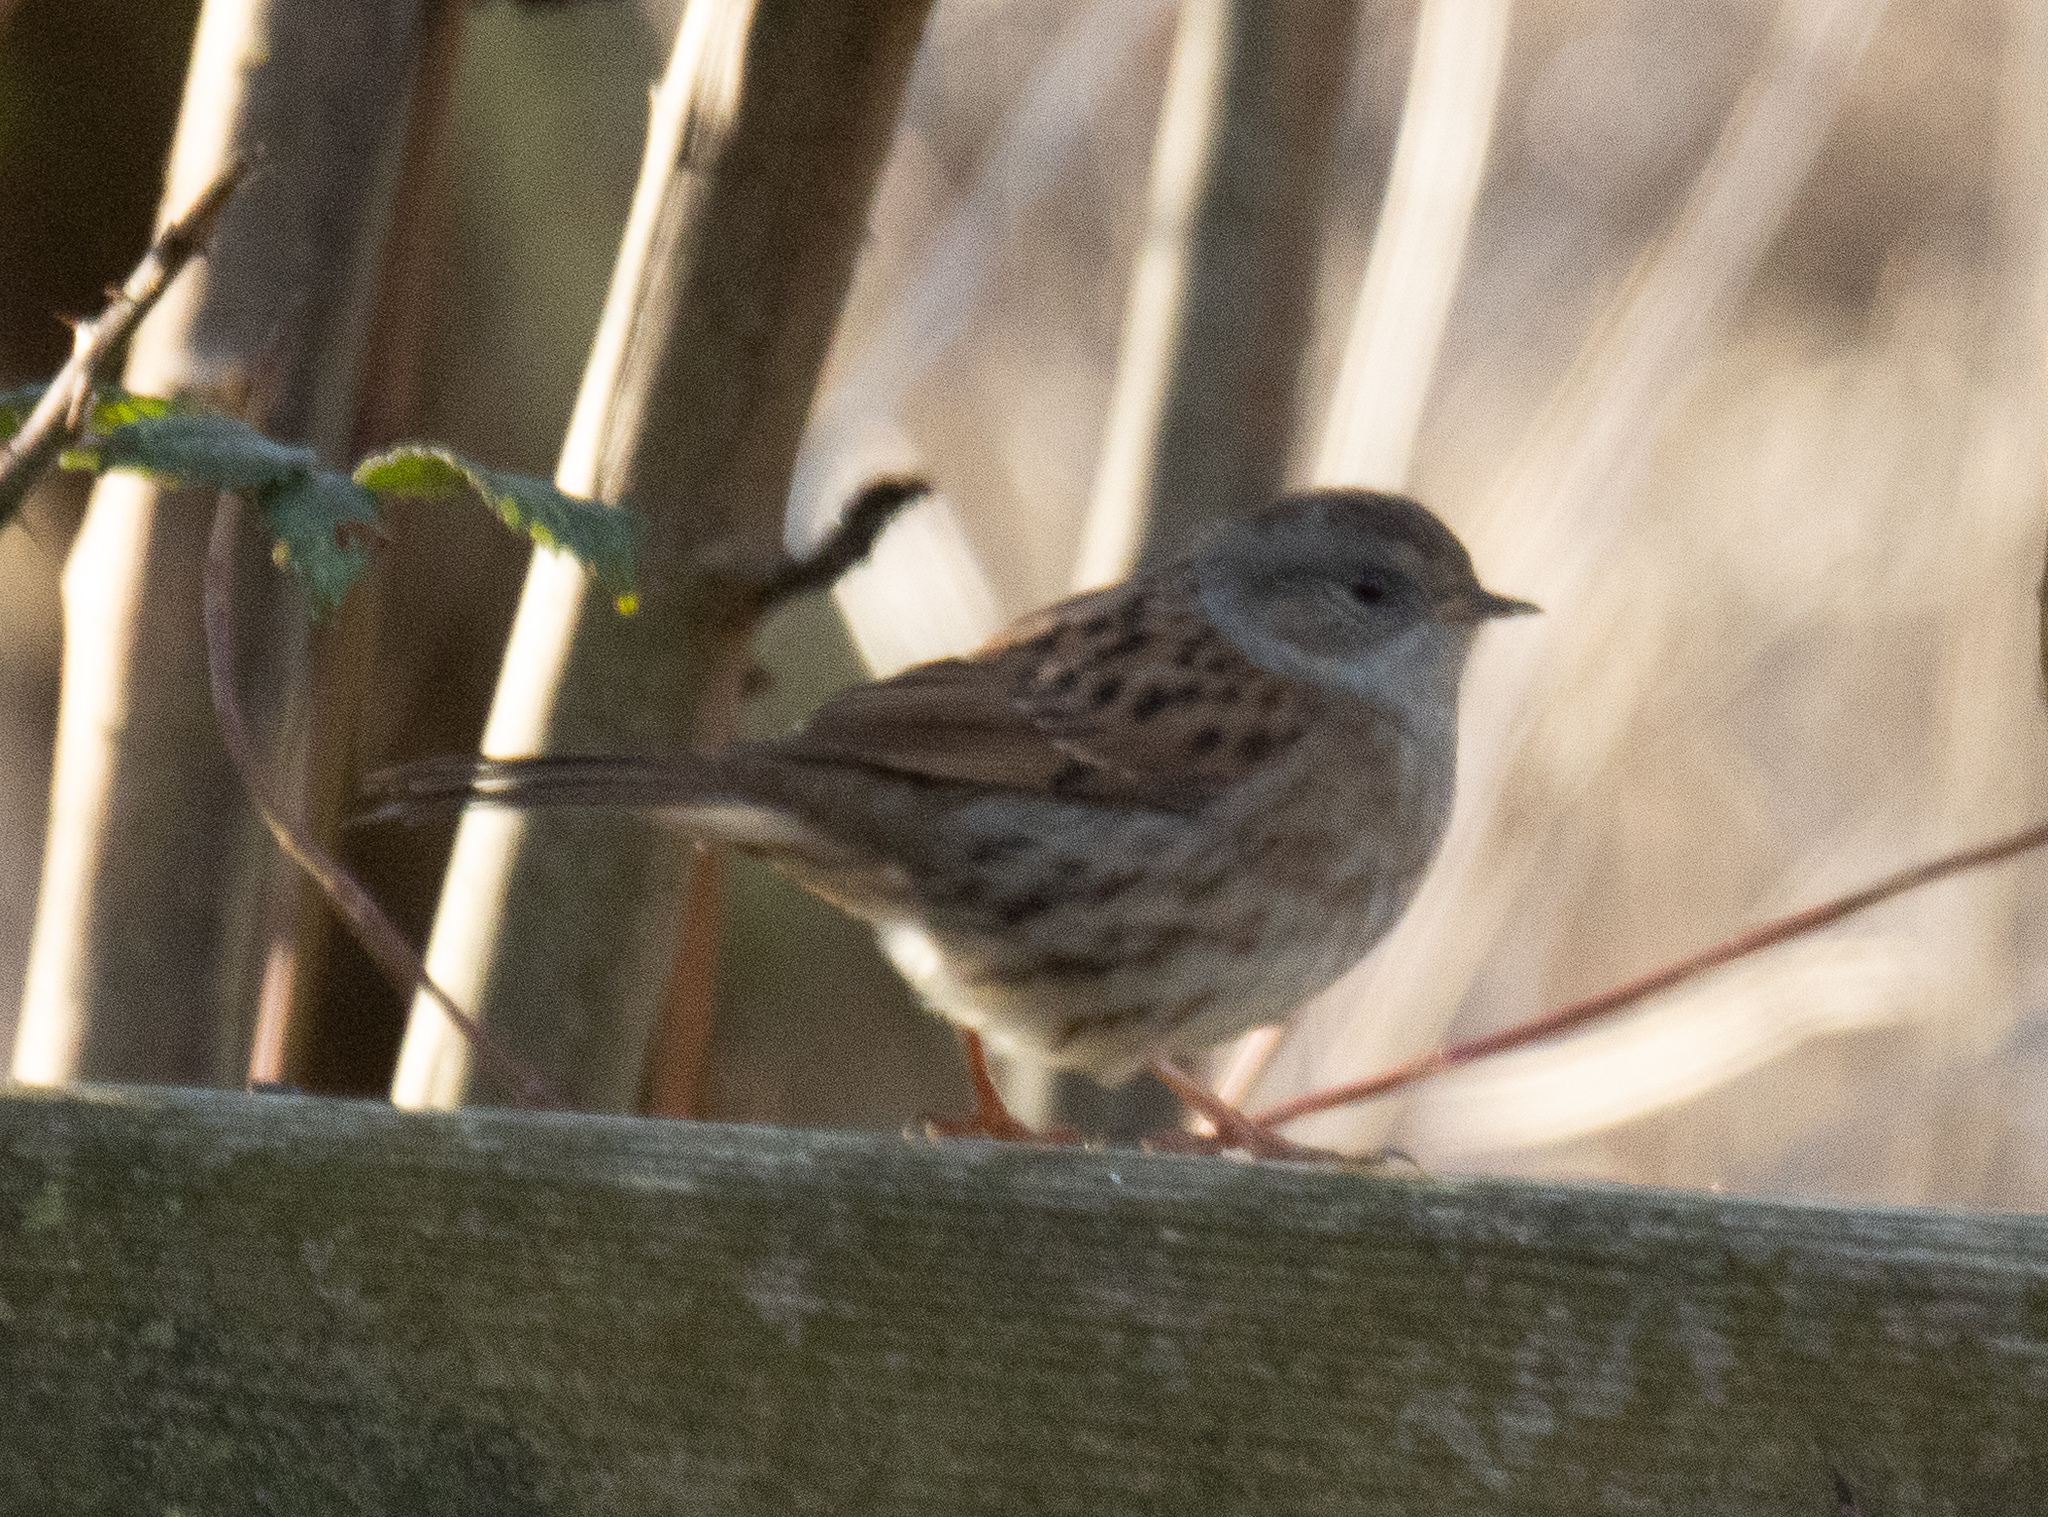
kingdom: Animalia
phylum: Chordata
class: Aves
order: Passeriformes
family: Prunellidae
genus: Prunella
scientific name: Prunella modularis
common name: Dunnock
